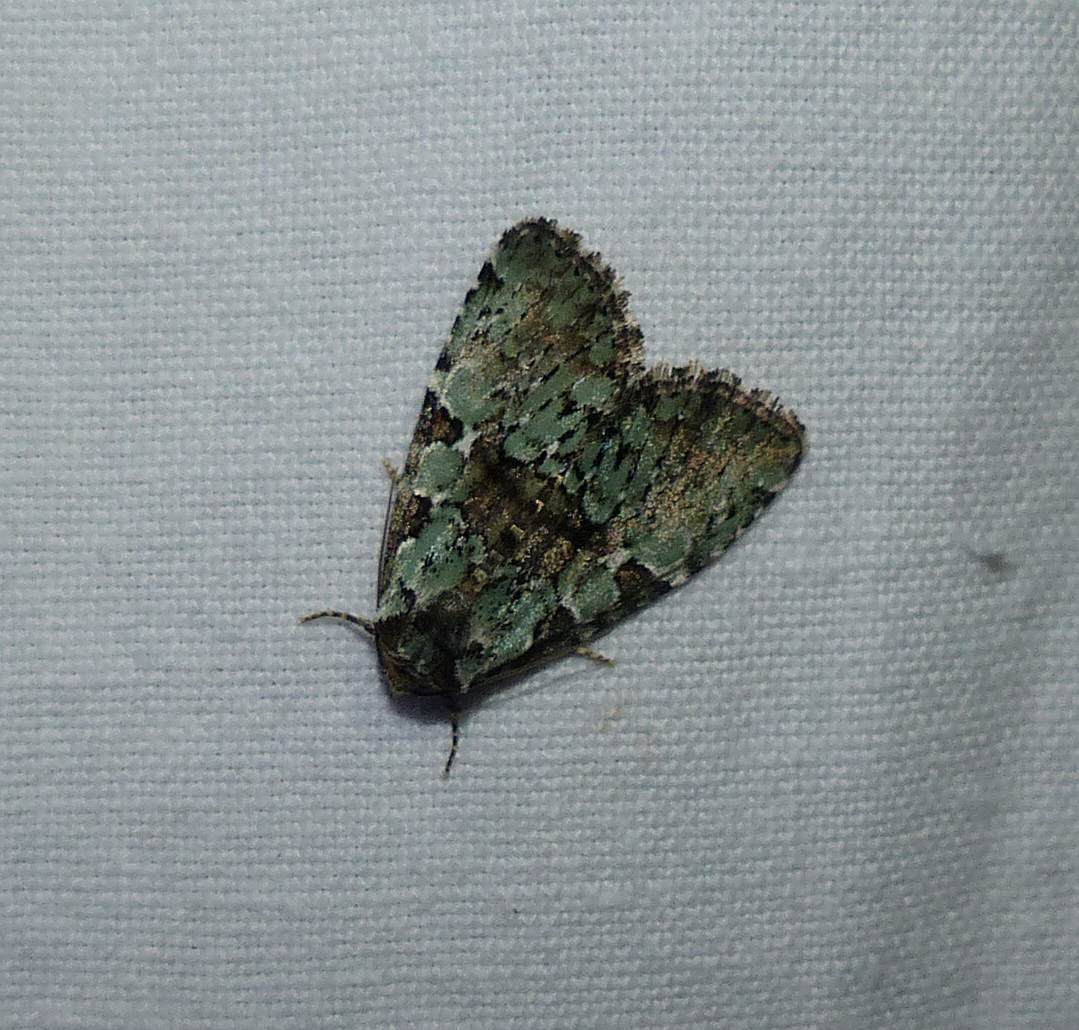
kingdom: Animalia
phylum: Arthropoda
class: Insecta
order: Lepidoptera
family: Noctuidae
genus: Leuconycta
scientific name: Leuconycta lepidula
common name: Marbled-green leuconycta moth
